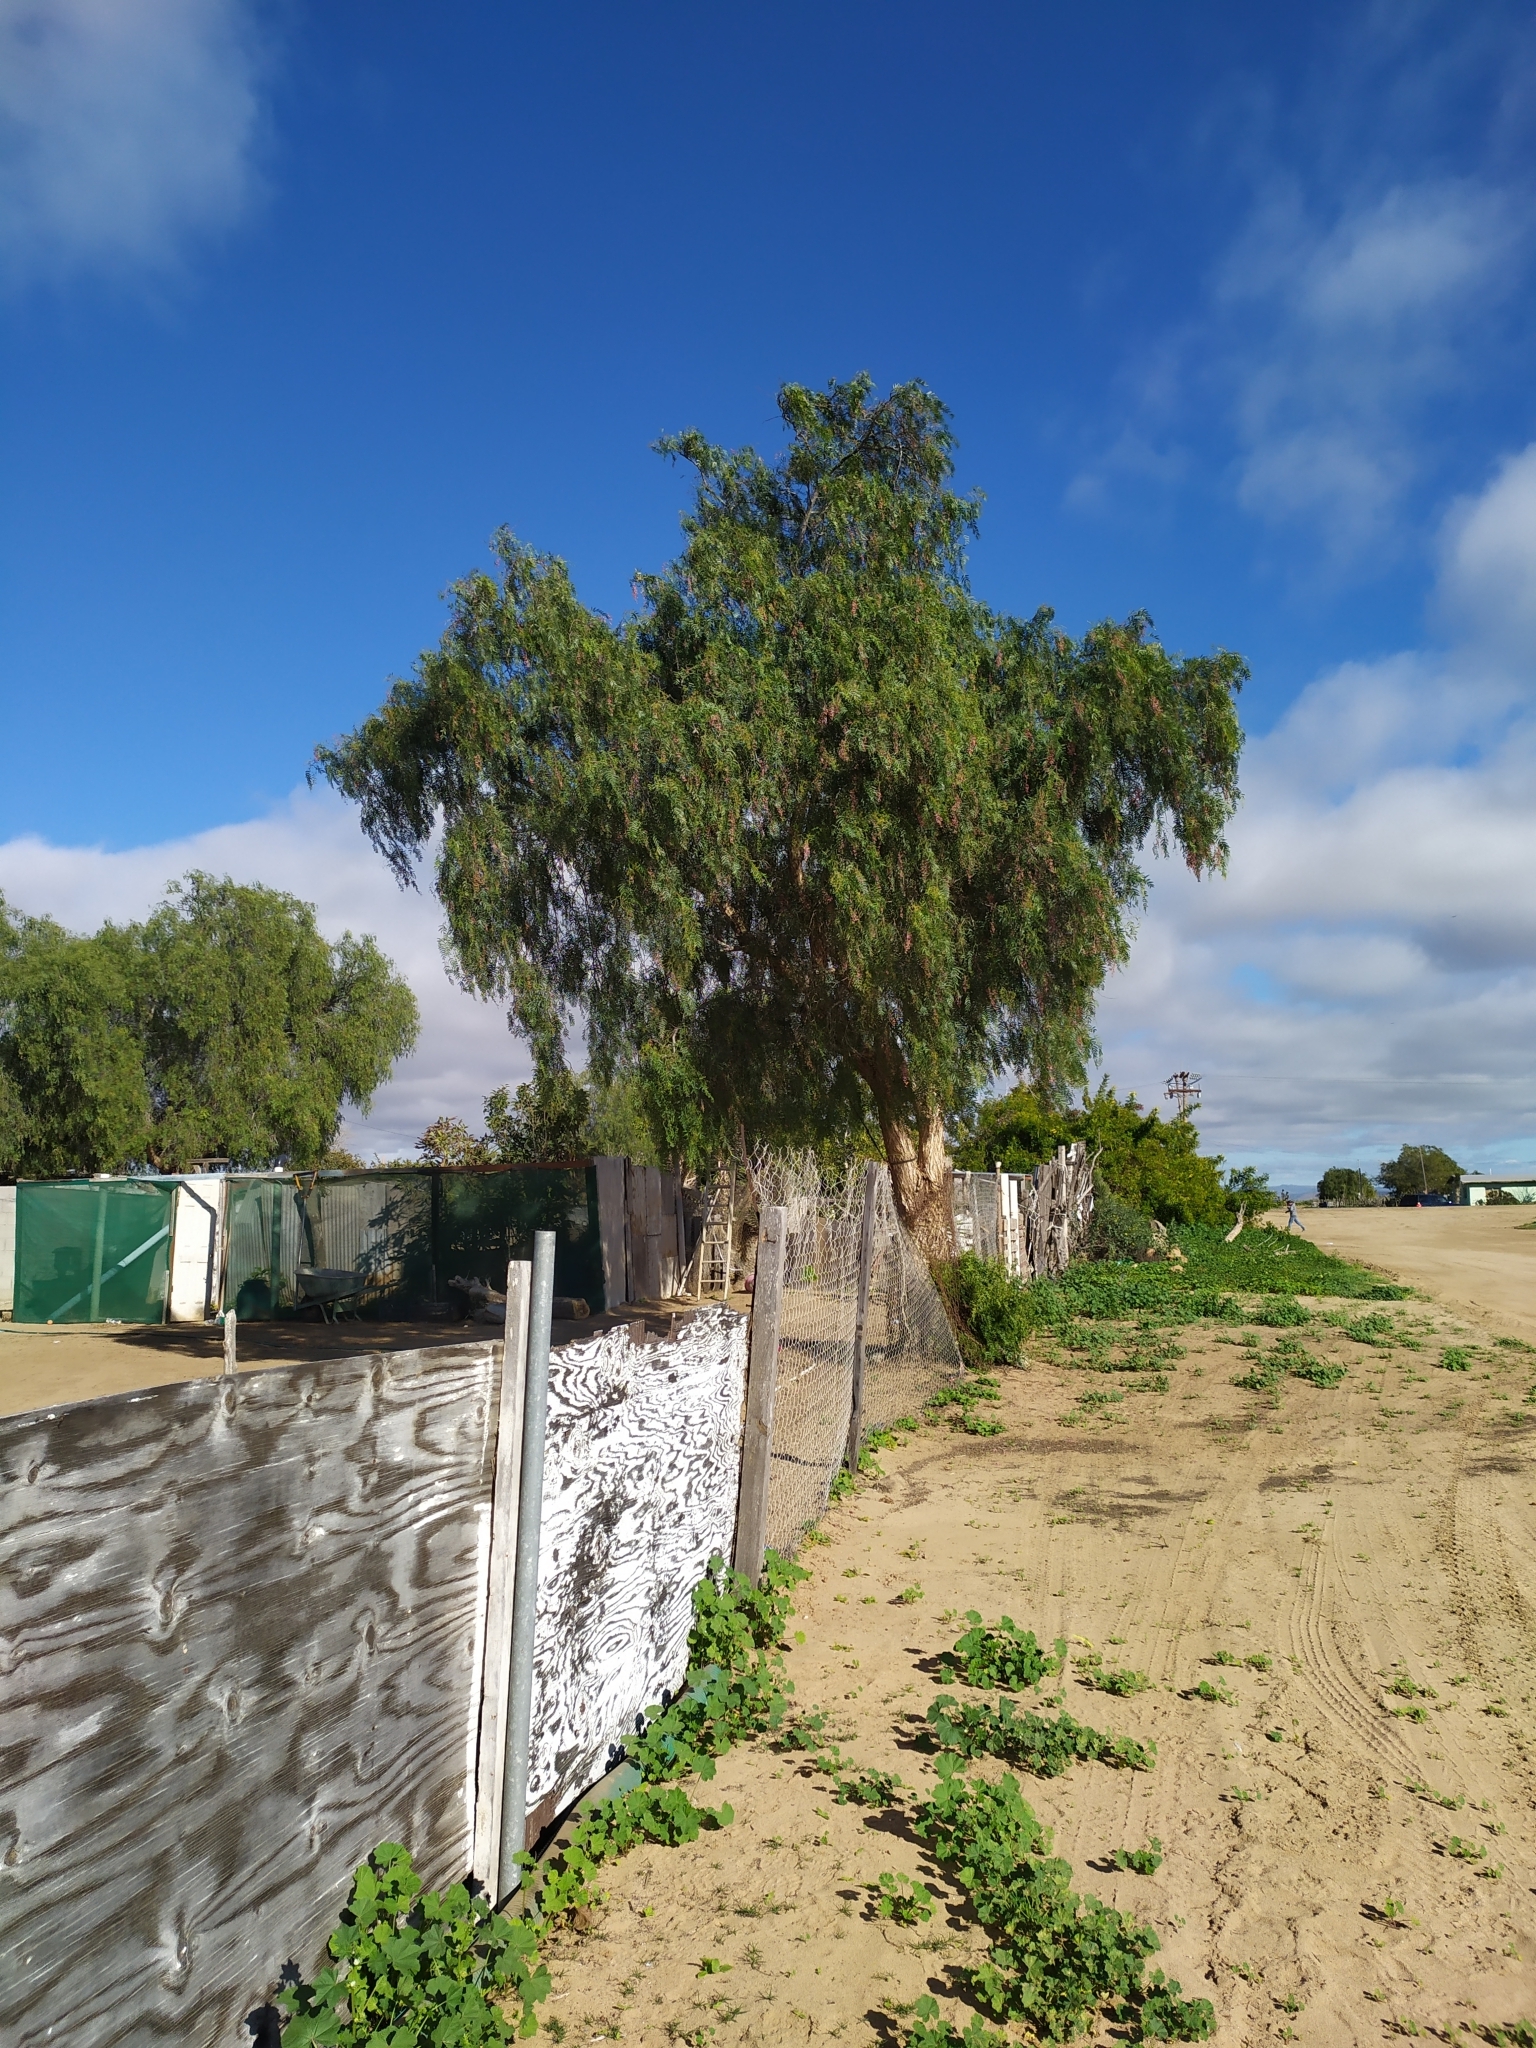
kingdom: Plantae
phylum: Tracheophyta
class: Magnoliopsida
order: Sapindales
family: Anacardiaceae
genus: Schinus
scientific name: Schinus molle
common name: Peruvian peppertree
